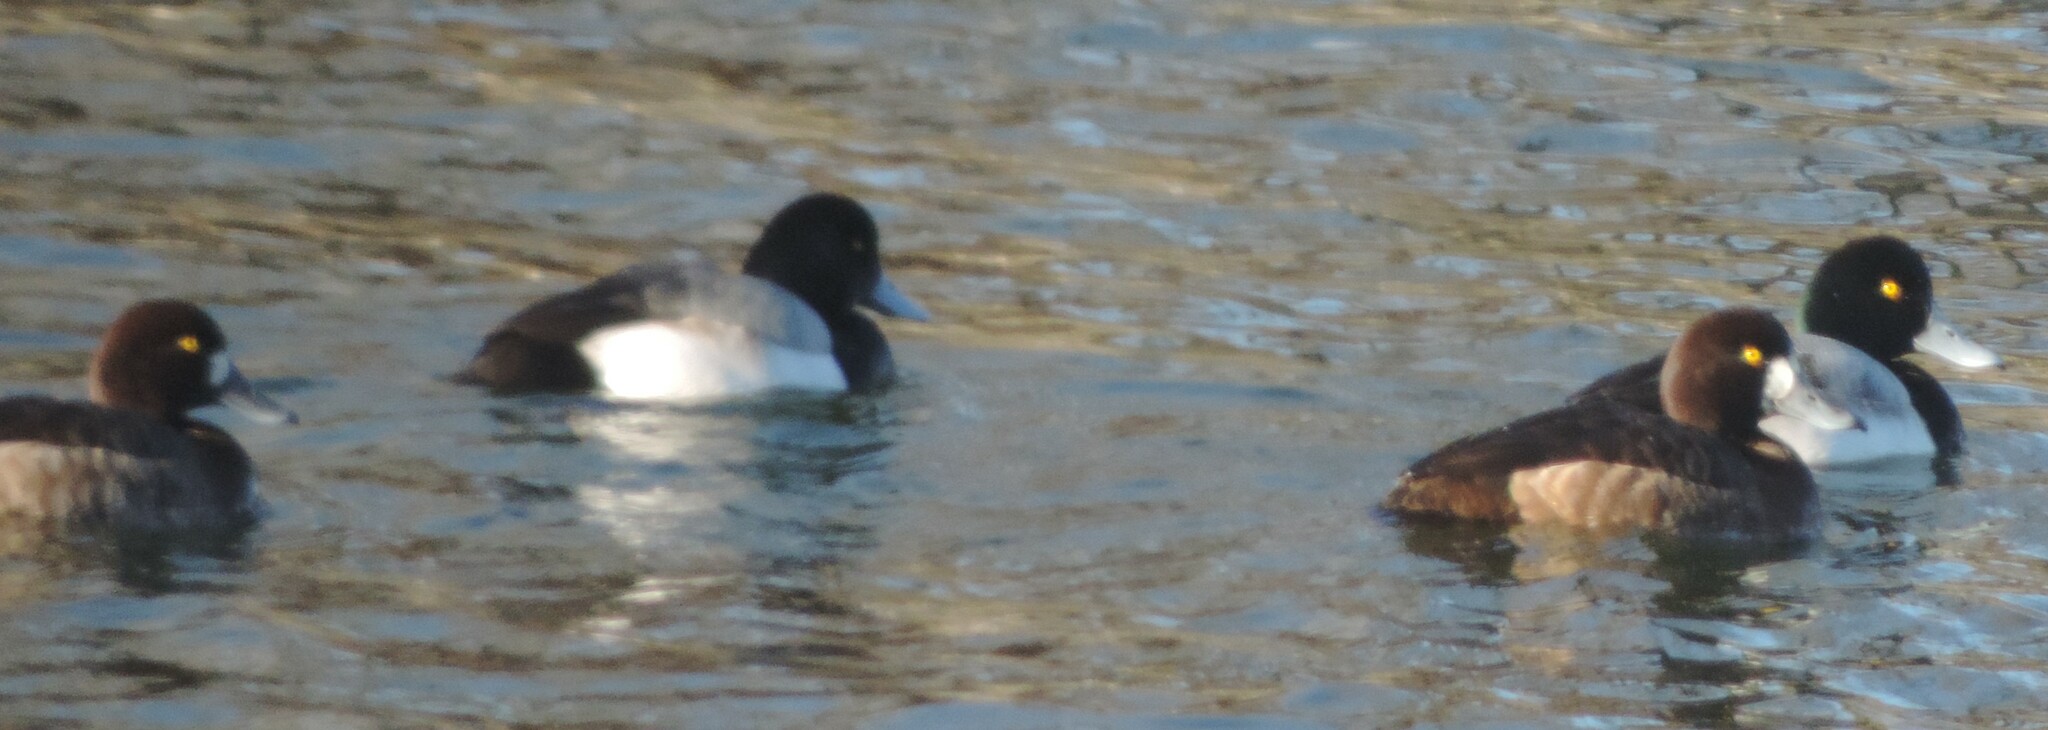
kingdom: Animalia
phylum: Chordata
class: Aves
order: Anseriformes
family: Anatidae
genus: Aythya
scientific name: Aythya marila
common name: Greater scaup
